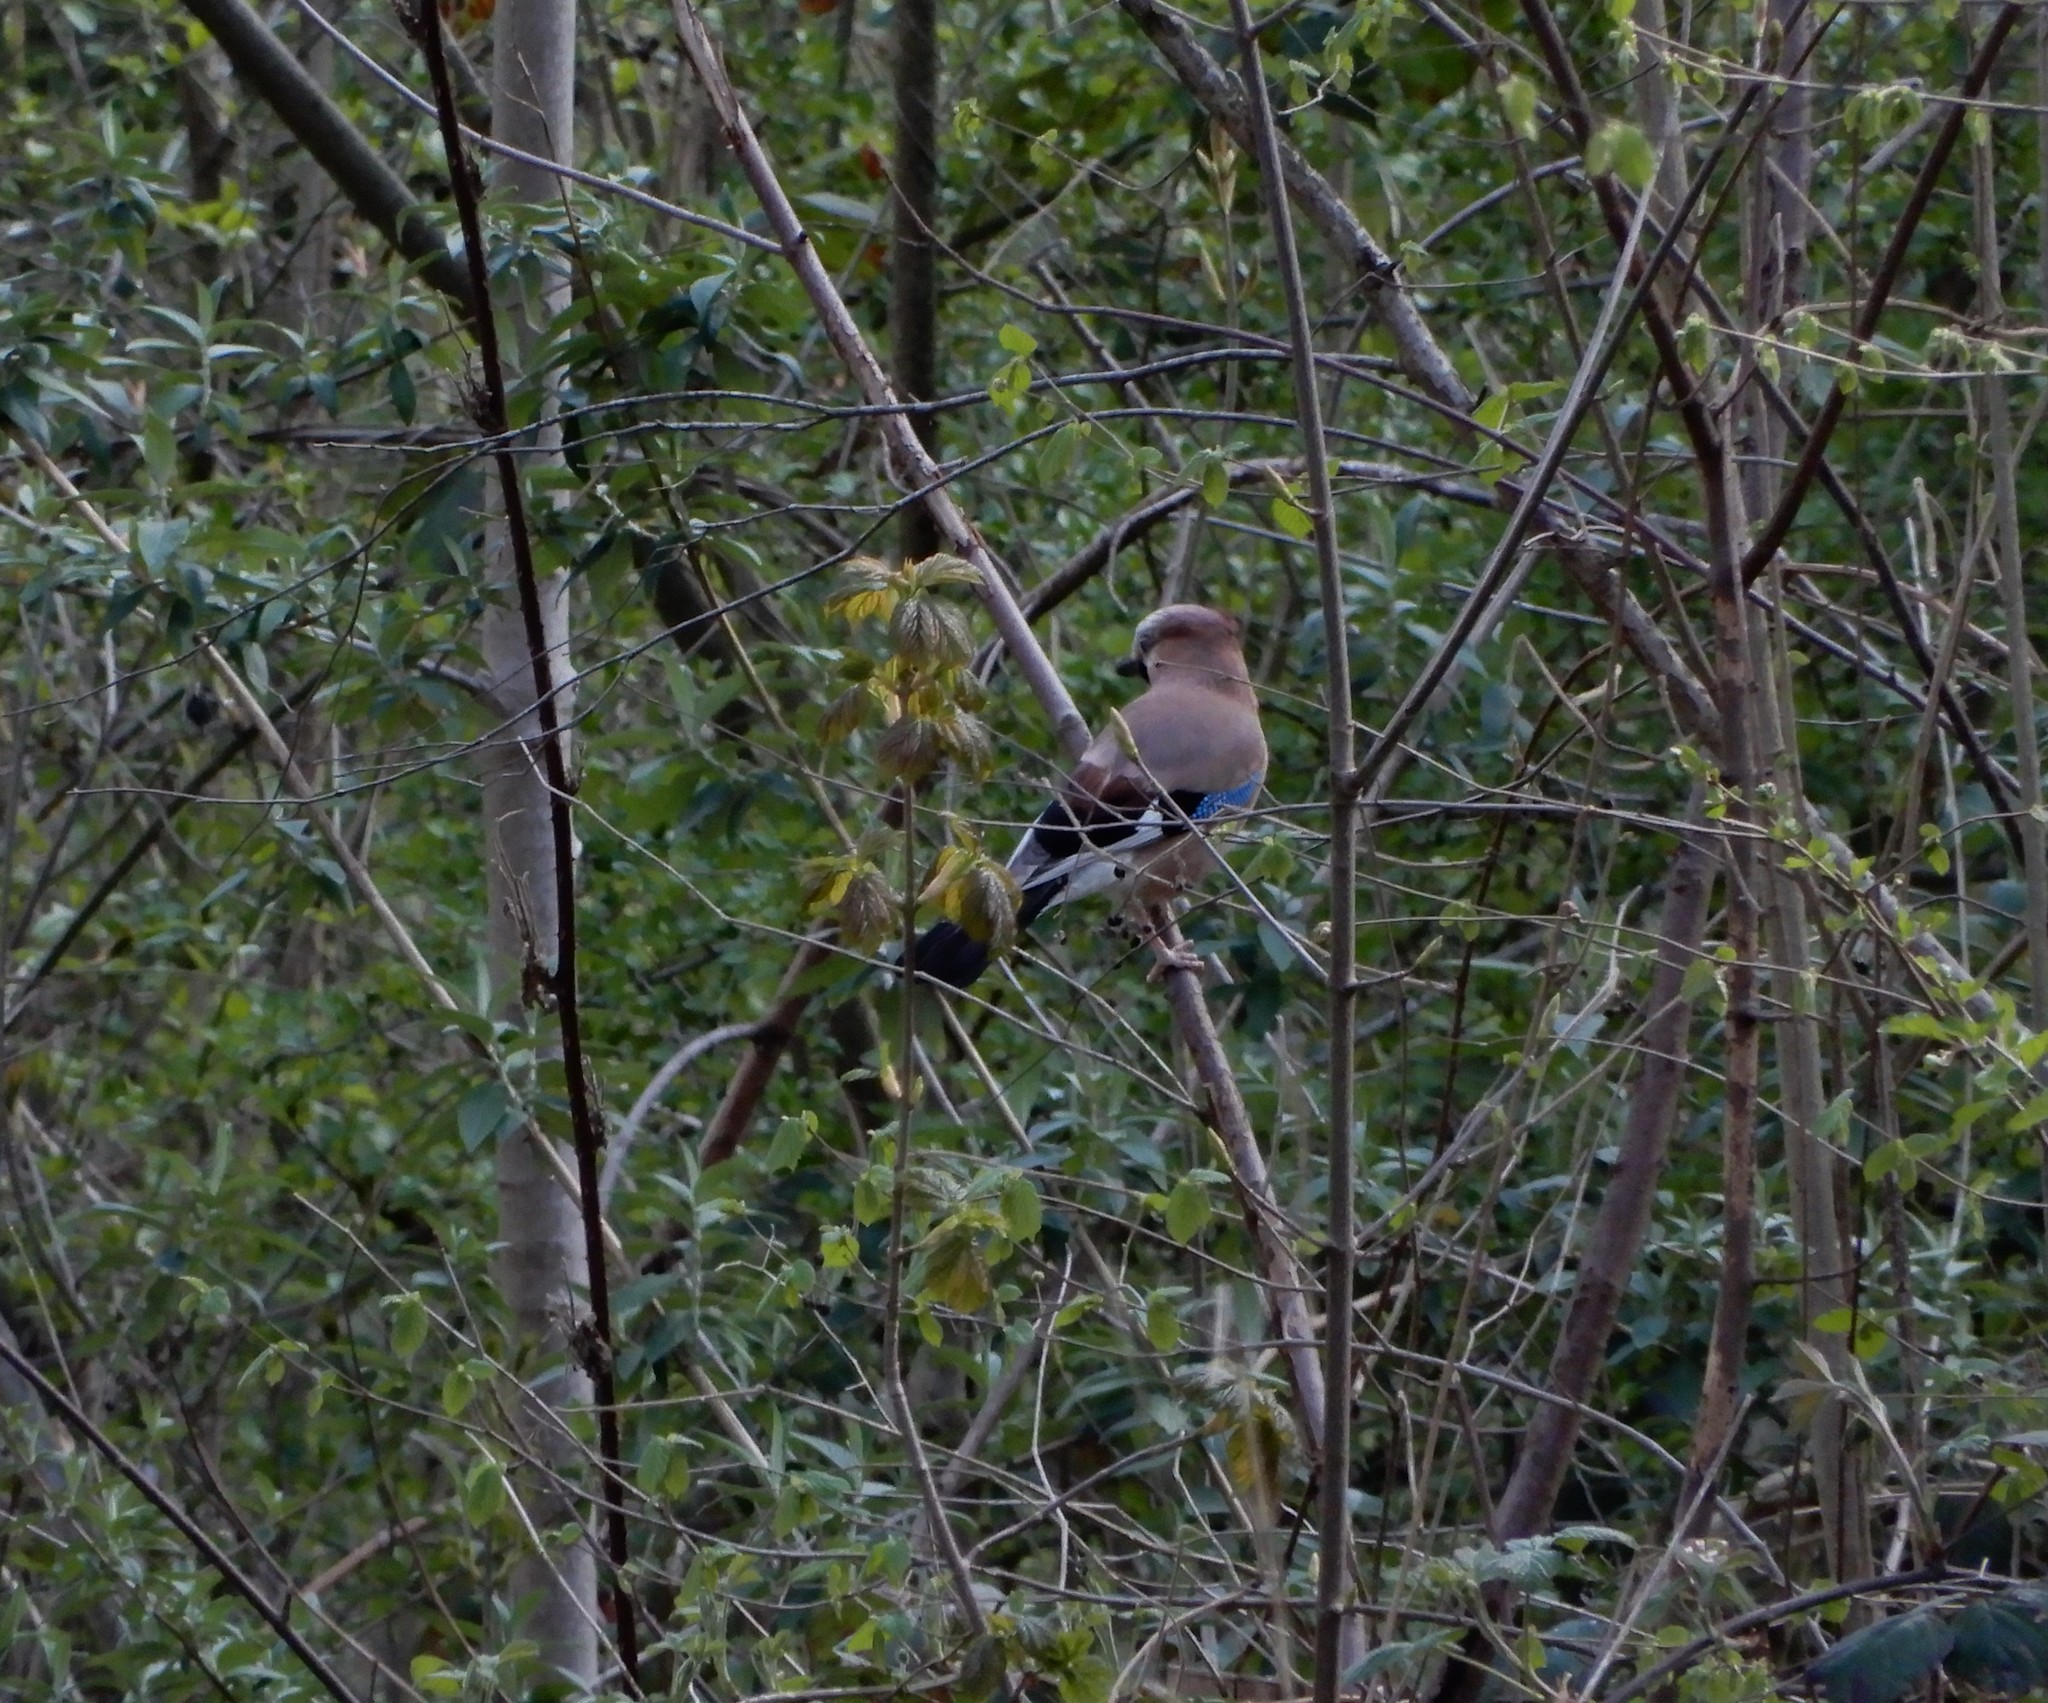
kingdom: Animalia
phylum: Chordata
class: Aves
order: Passeriformes
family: Corvidae
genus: Garrulus
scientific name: Garrulus glandarius
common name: Eurasian jay
